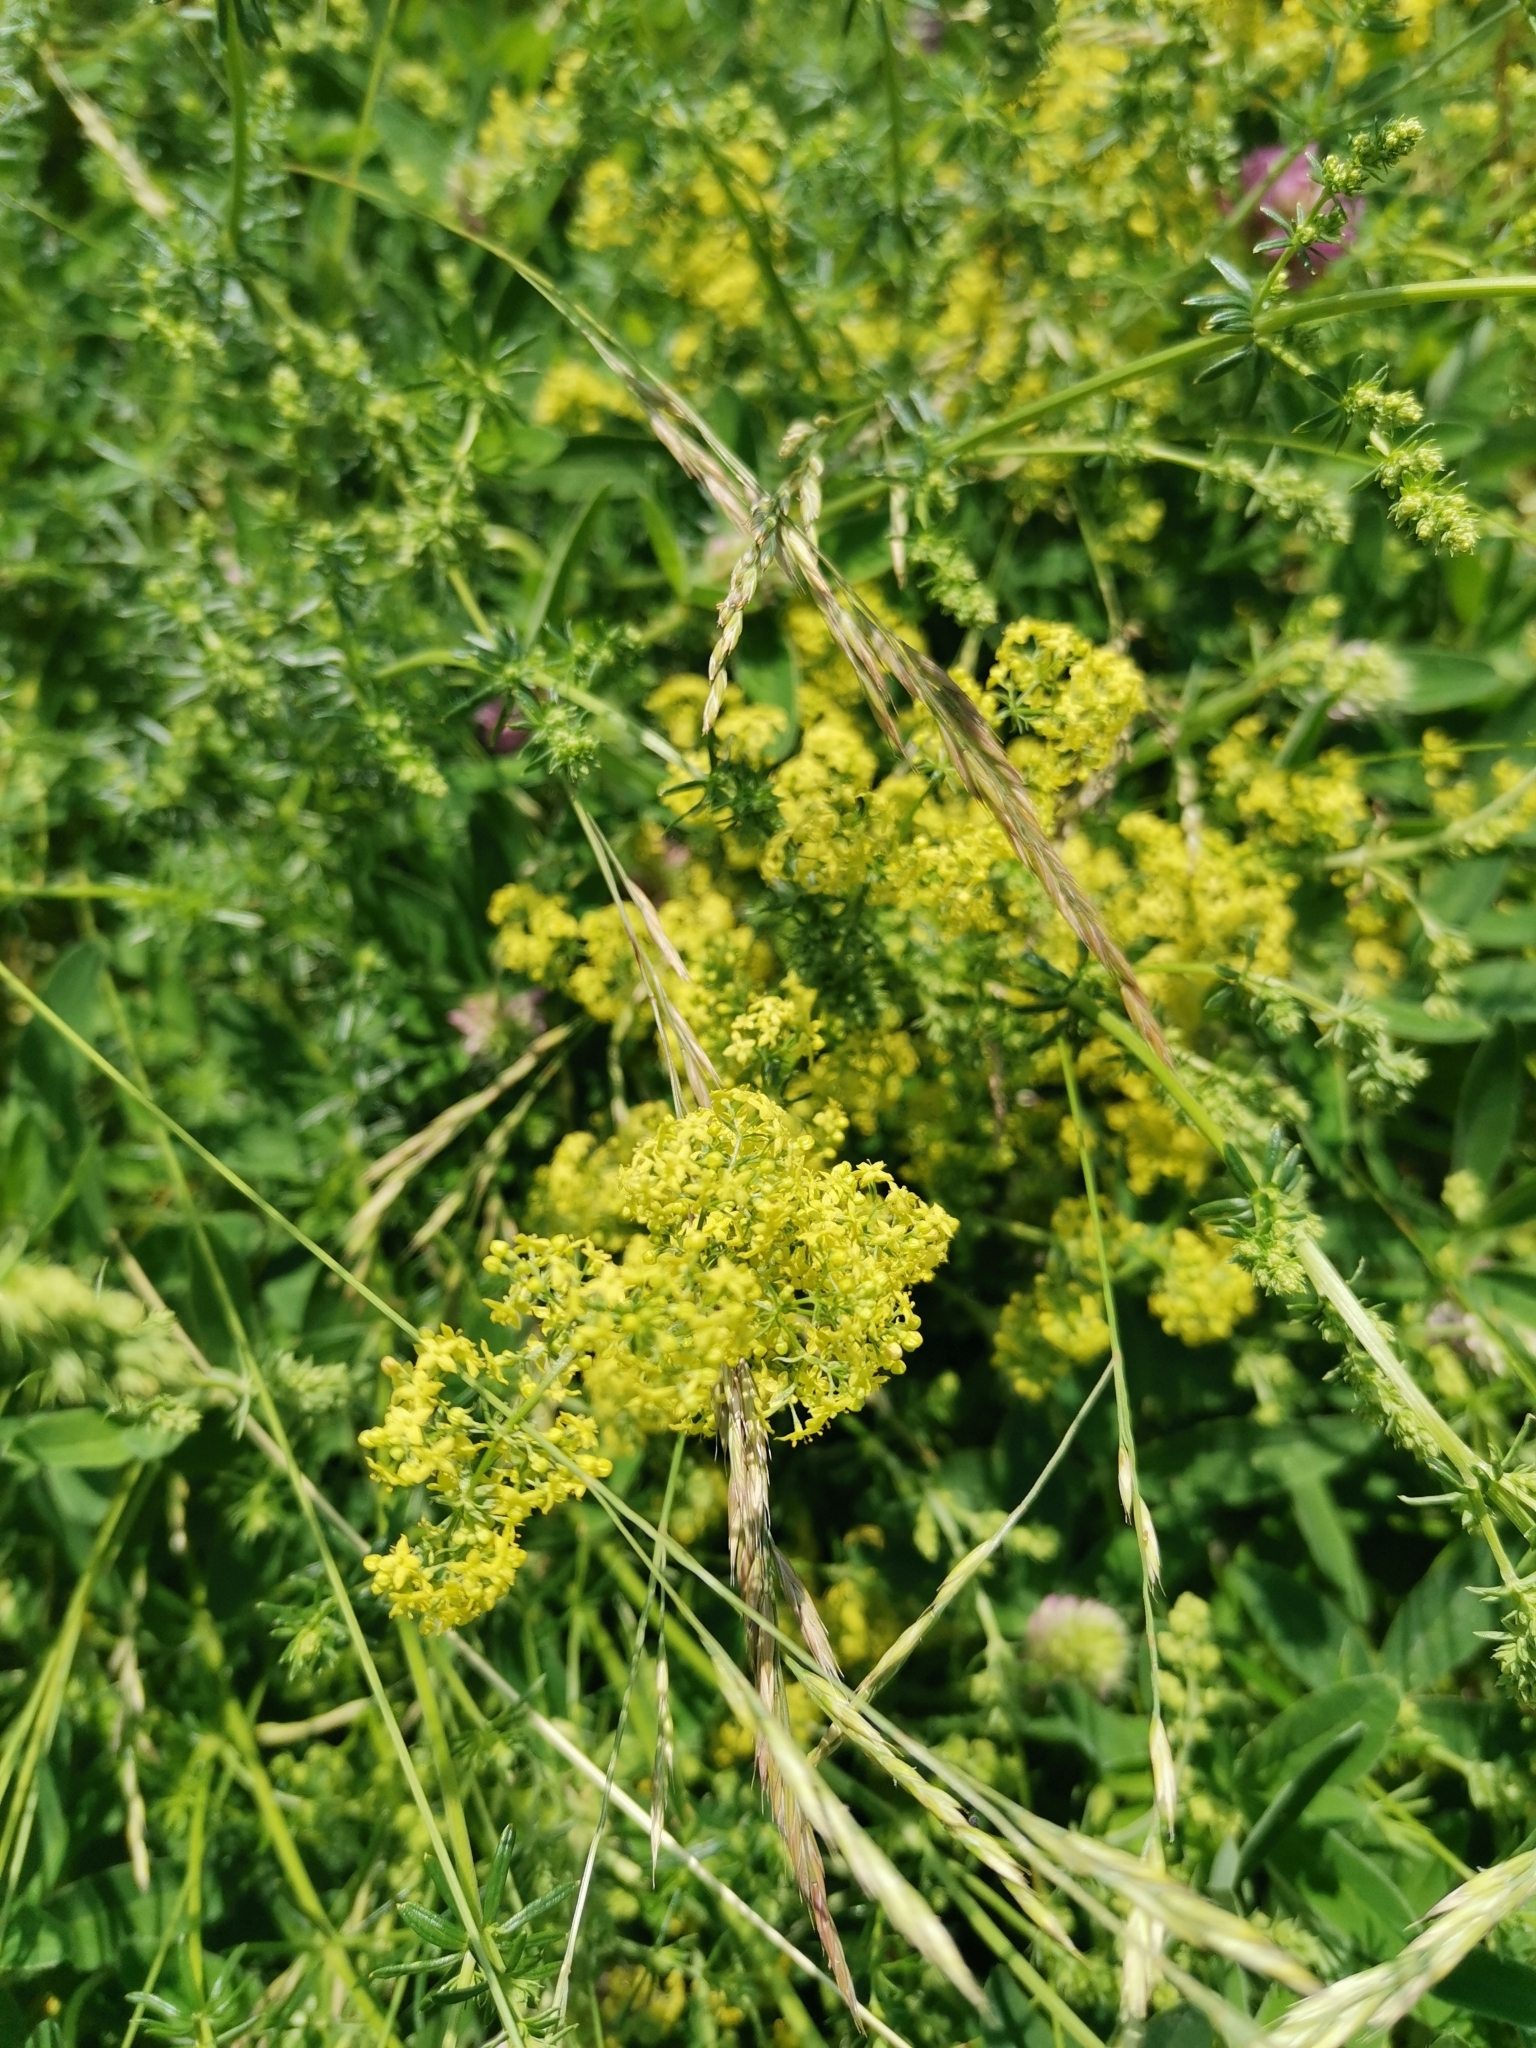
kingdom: Plantae
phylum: Tracheophyta
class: Magnoliopsida
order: Gentianales
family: Rubiaceae
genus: Galium
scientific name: Galium verum
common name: Lady's bedstraw
